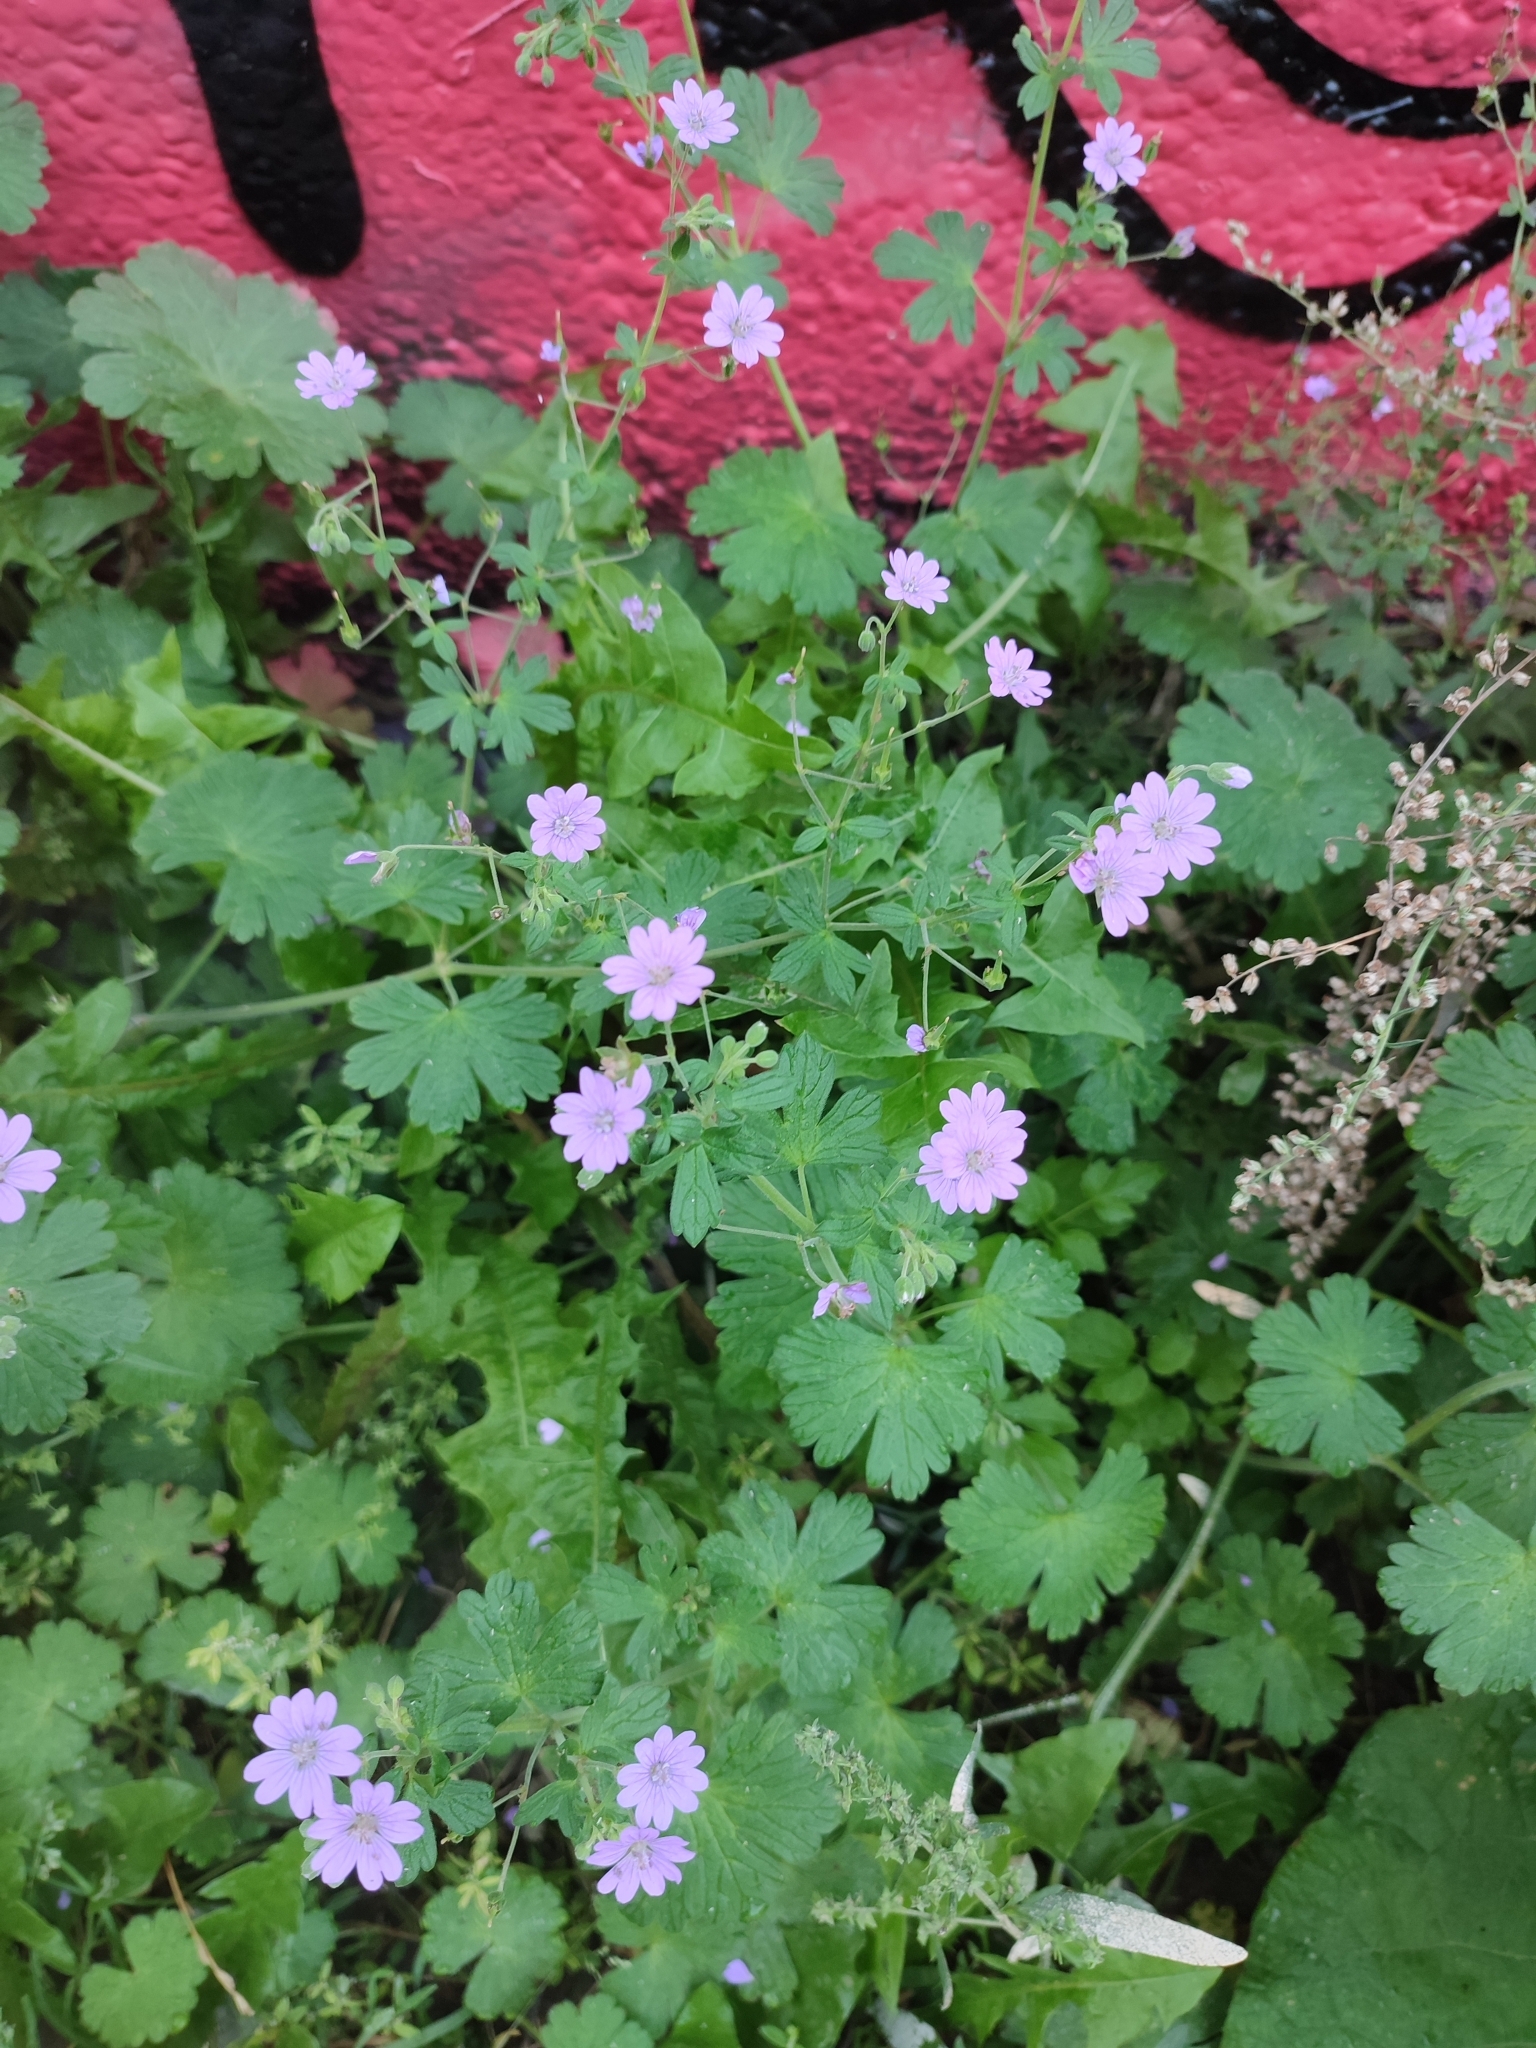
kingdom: Plantae
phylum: Tracheophyta
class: Magnoliopsida
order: Geraniales
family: Geraniaceae
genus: Geranium
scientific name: Geranium pyrenaicum
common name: Hedgerow crane's-bill
